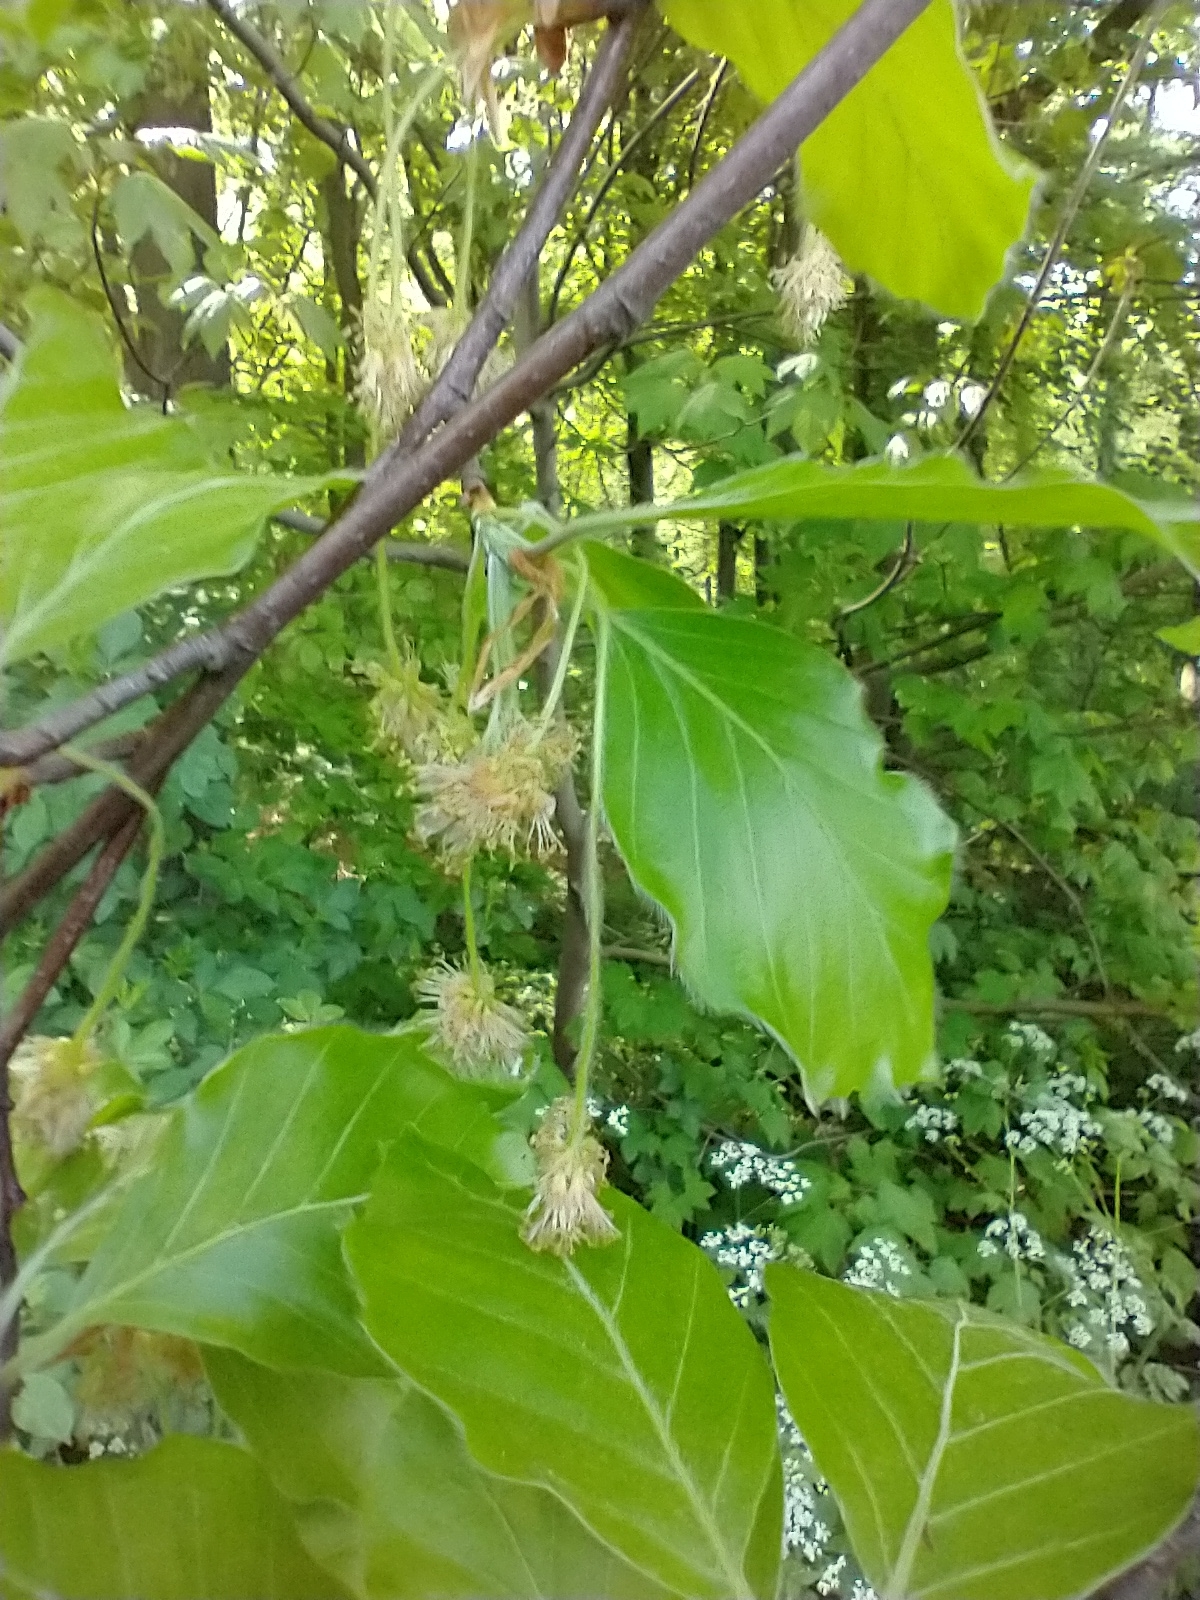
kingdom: Plantae
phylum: Tracheophyta
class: Magnoliopsida
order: Fagales
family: Fagaceae
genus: Fagus
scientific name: Fagus sylvatica
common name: Beech
